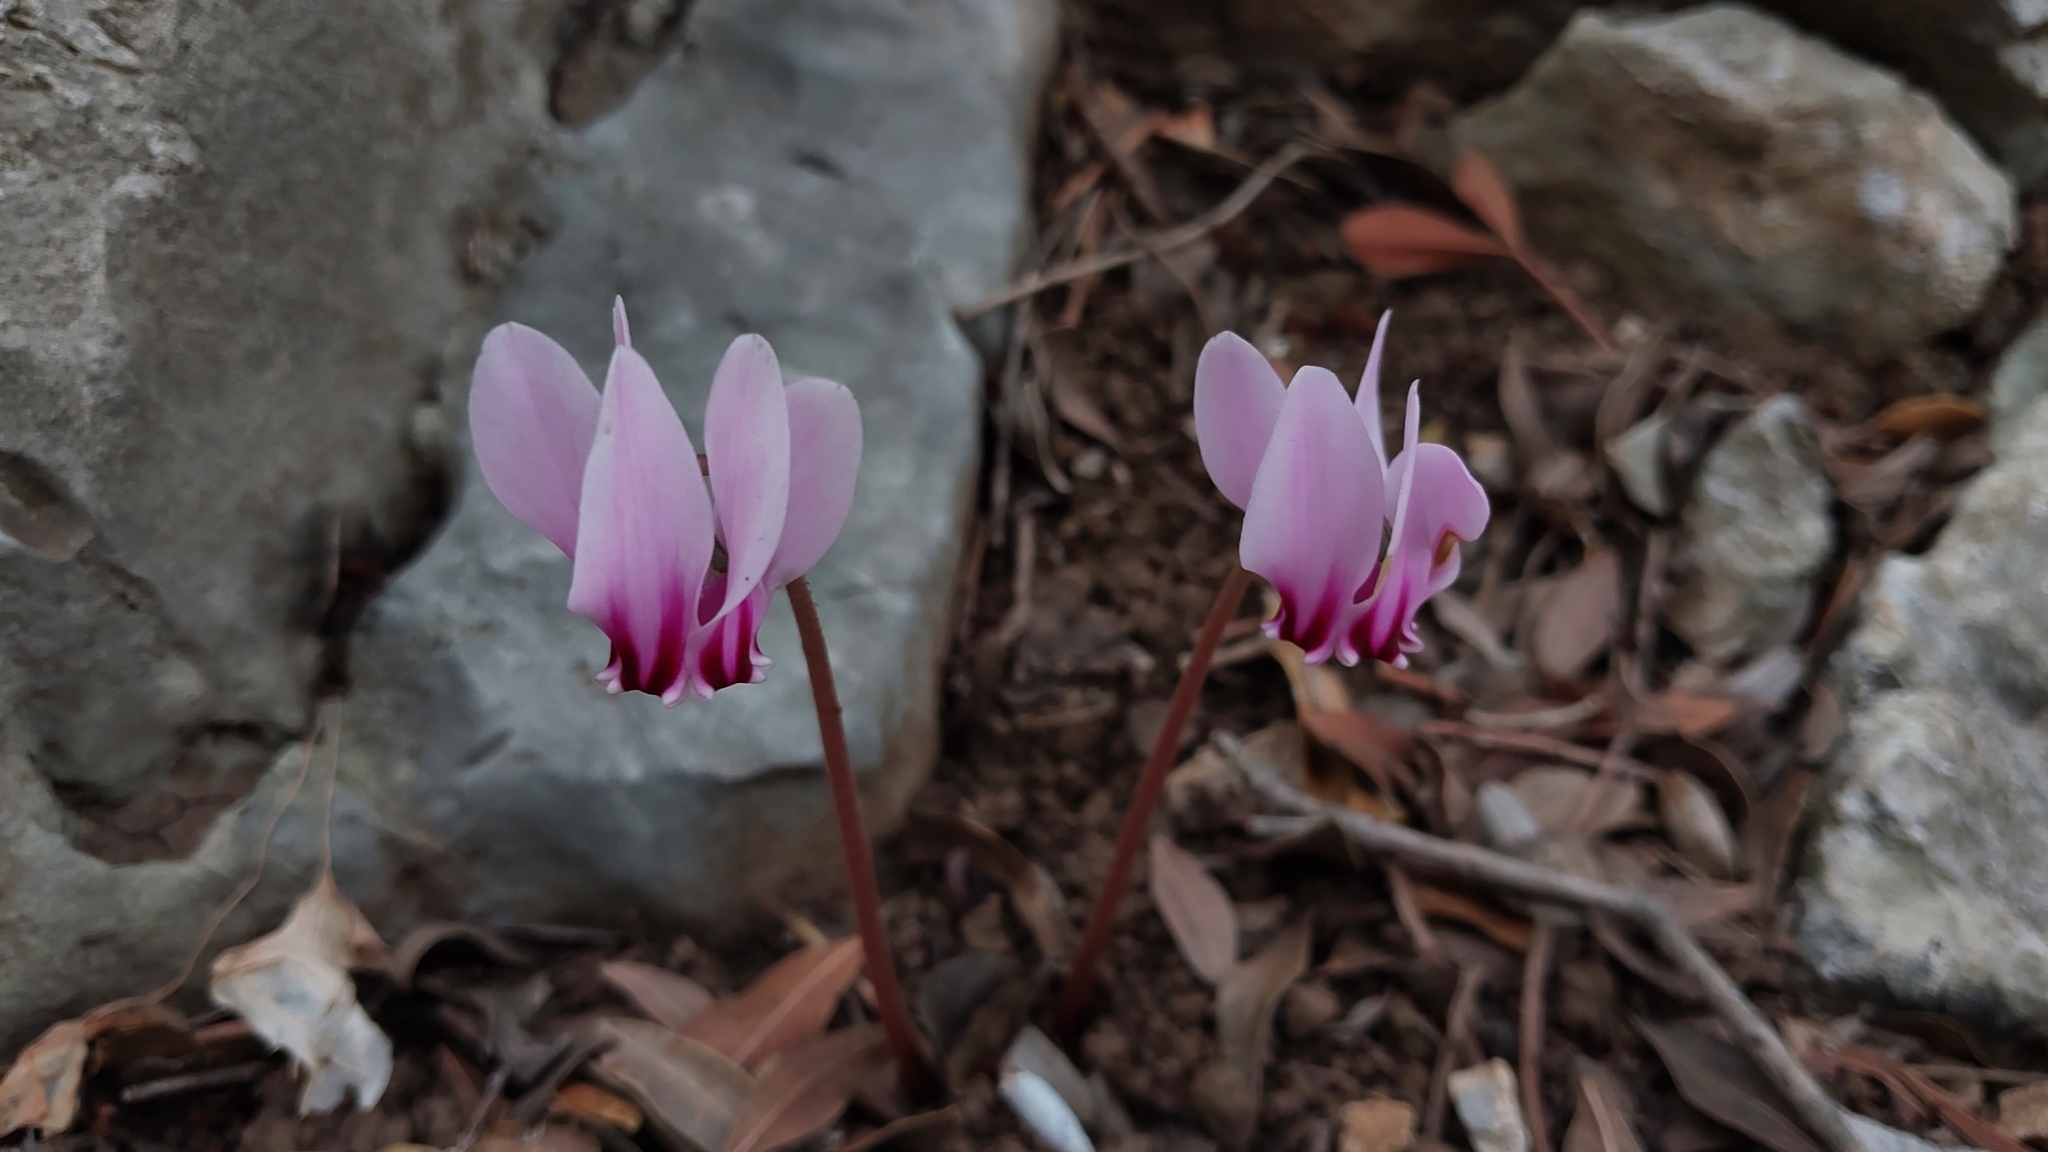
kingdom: Plantae
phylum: Tracheophyta
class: Magnoliopsida
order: Ericales
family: Primulaceae
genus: Cyclamen
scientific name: Cyclamen hederifolium
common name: Sowbread
